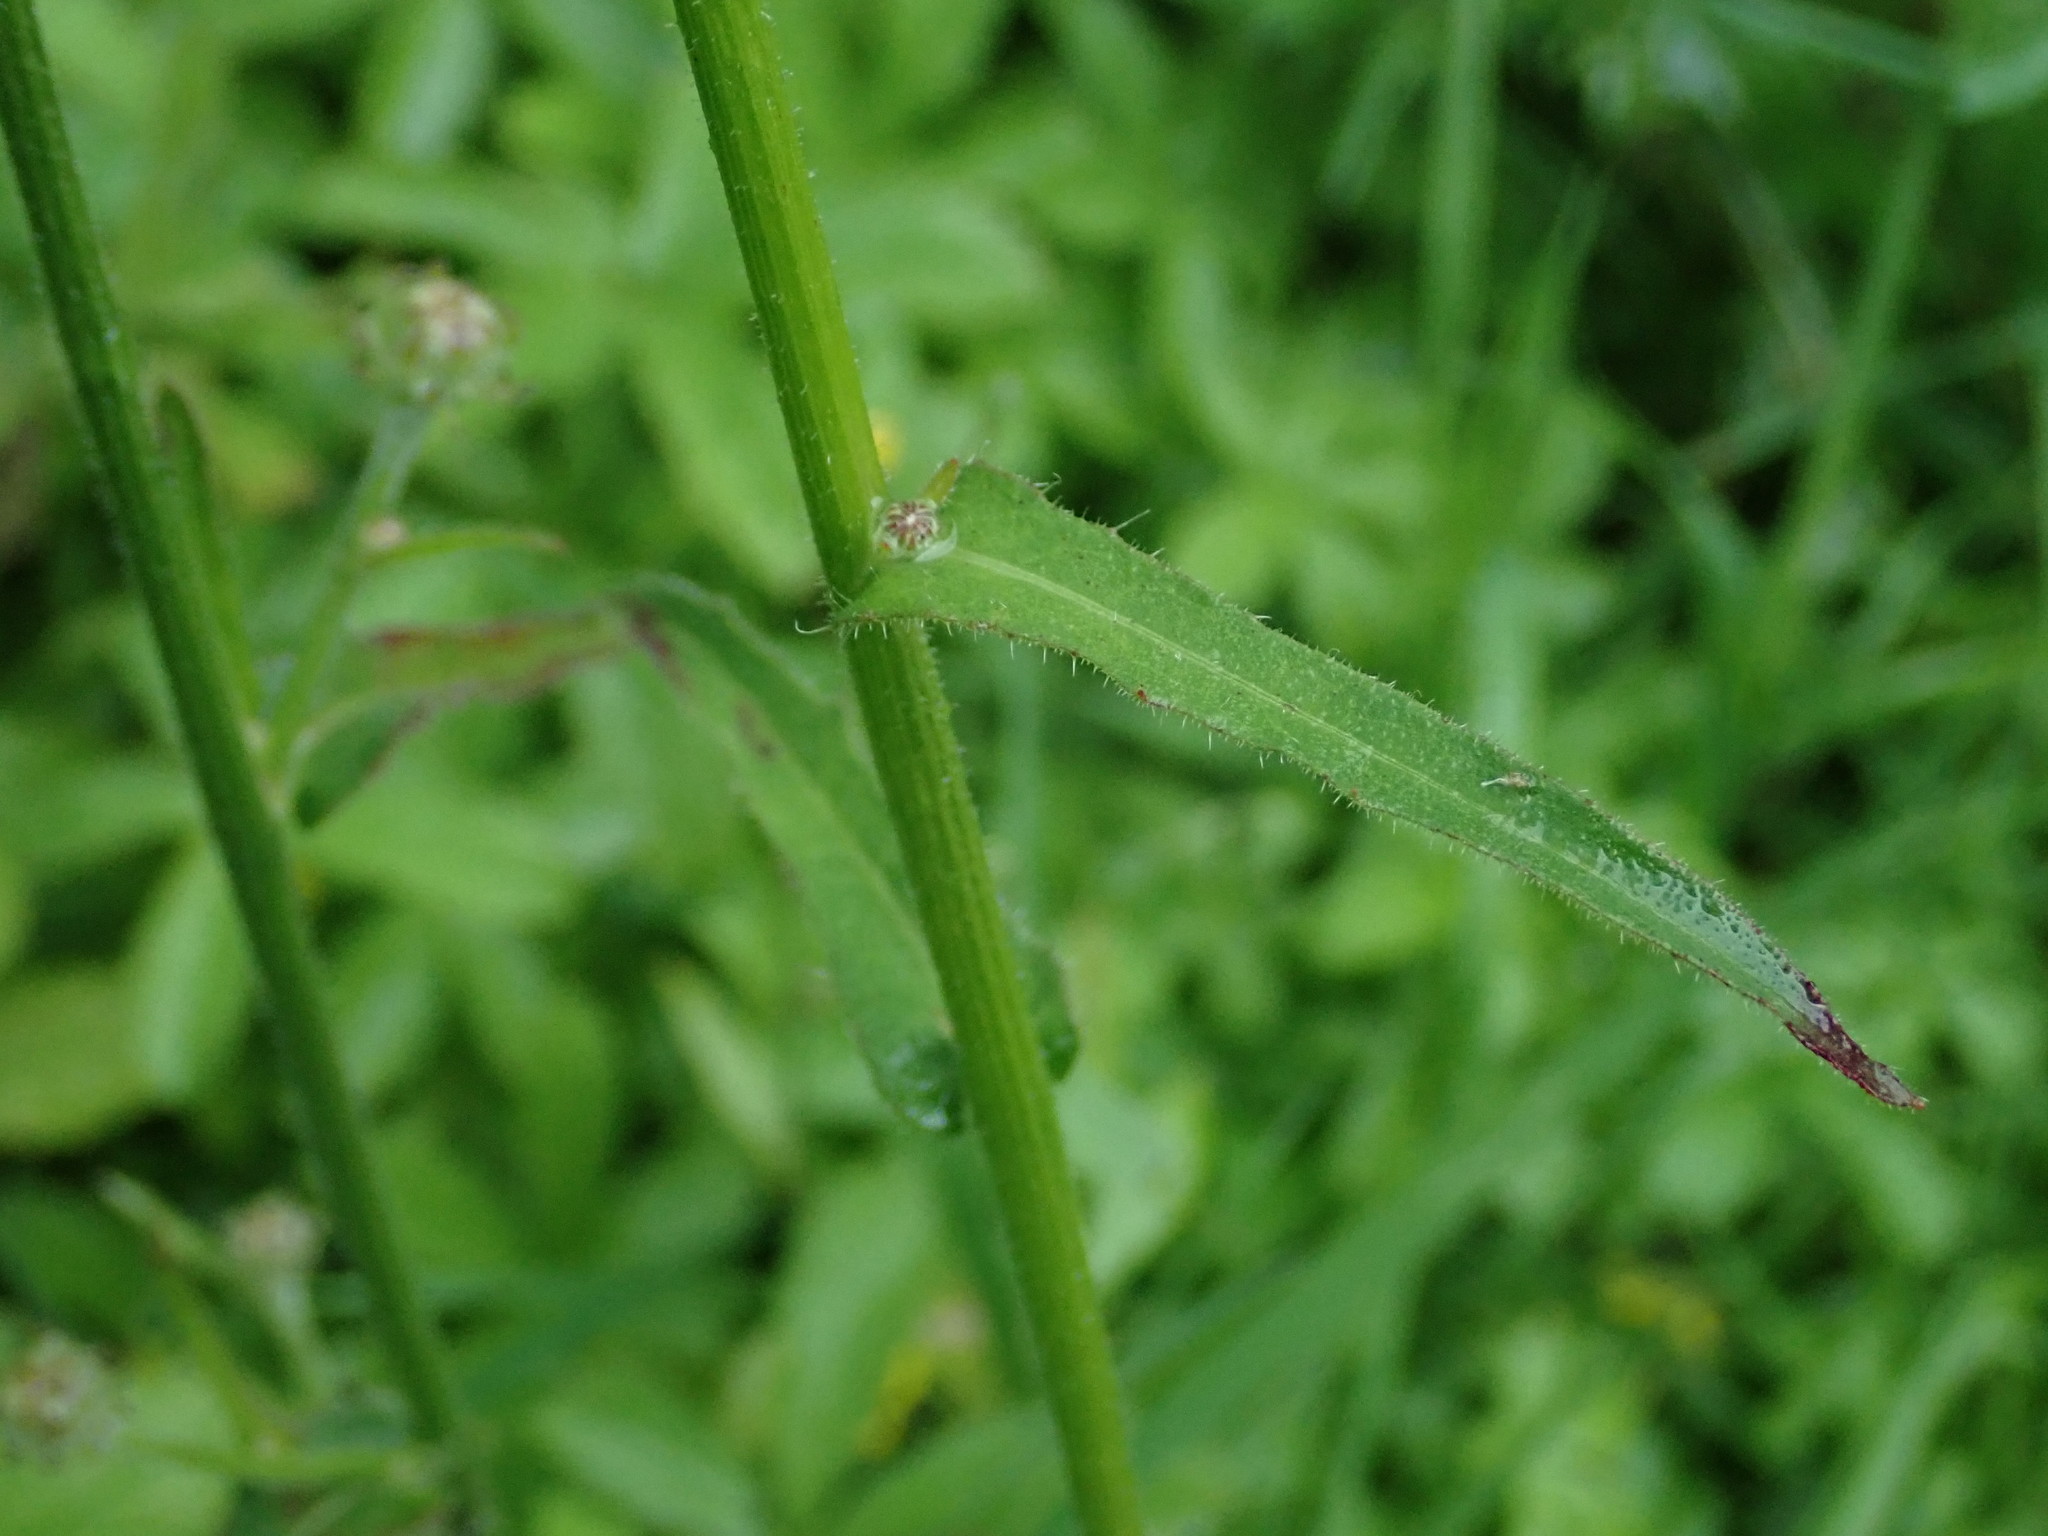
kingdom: Plantae
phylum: Tracheophyta
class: Magnoliopsida
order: Asterales
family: Asteraceae
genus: Picris
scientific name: Picris hieracioides
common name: Hawkweed oxtongue
